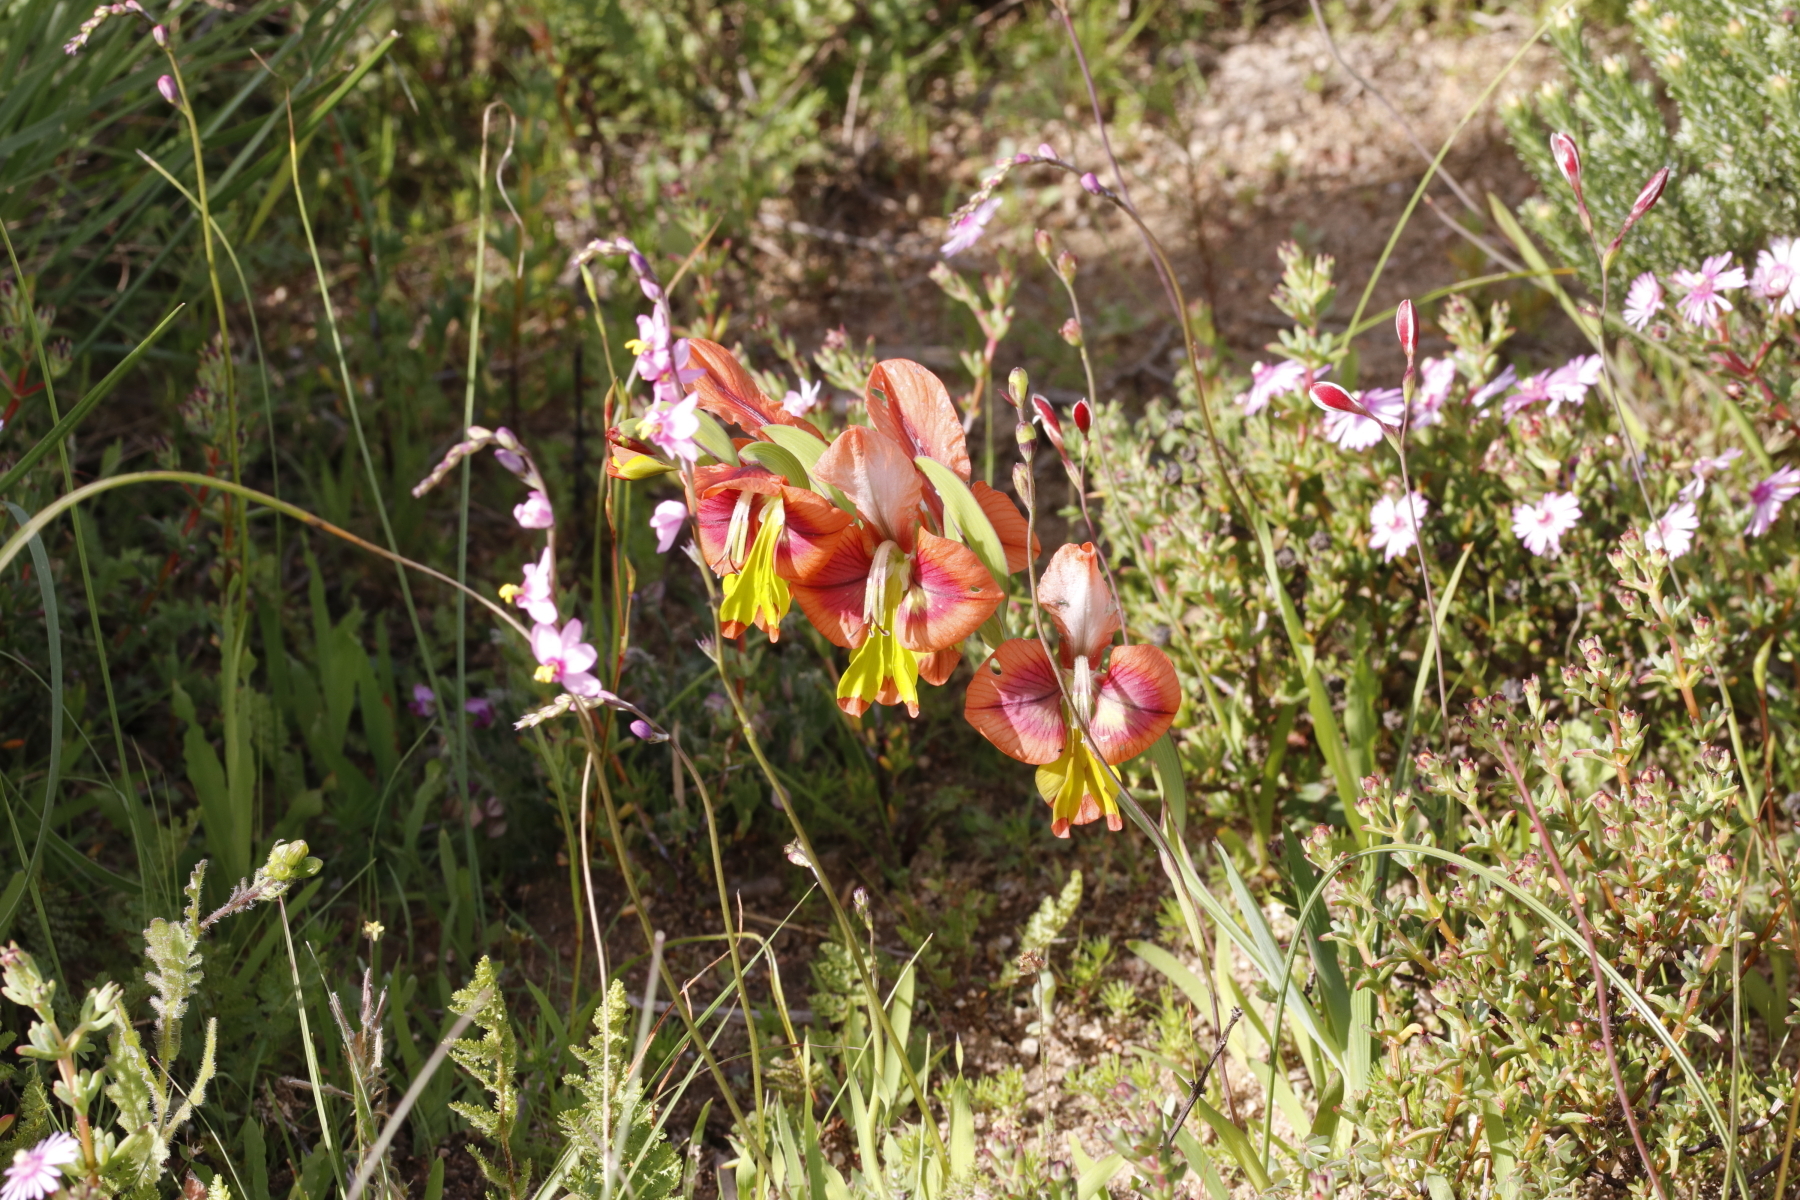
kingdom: Plantae
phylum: Tracheophyta
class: Liliopsida
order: Asparagales
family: Iridaceae
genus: Gladiolus
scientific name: Gladiolus alatus
